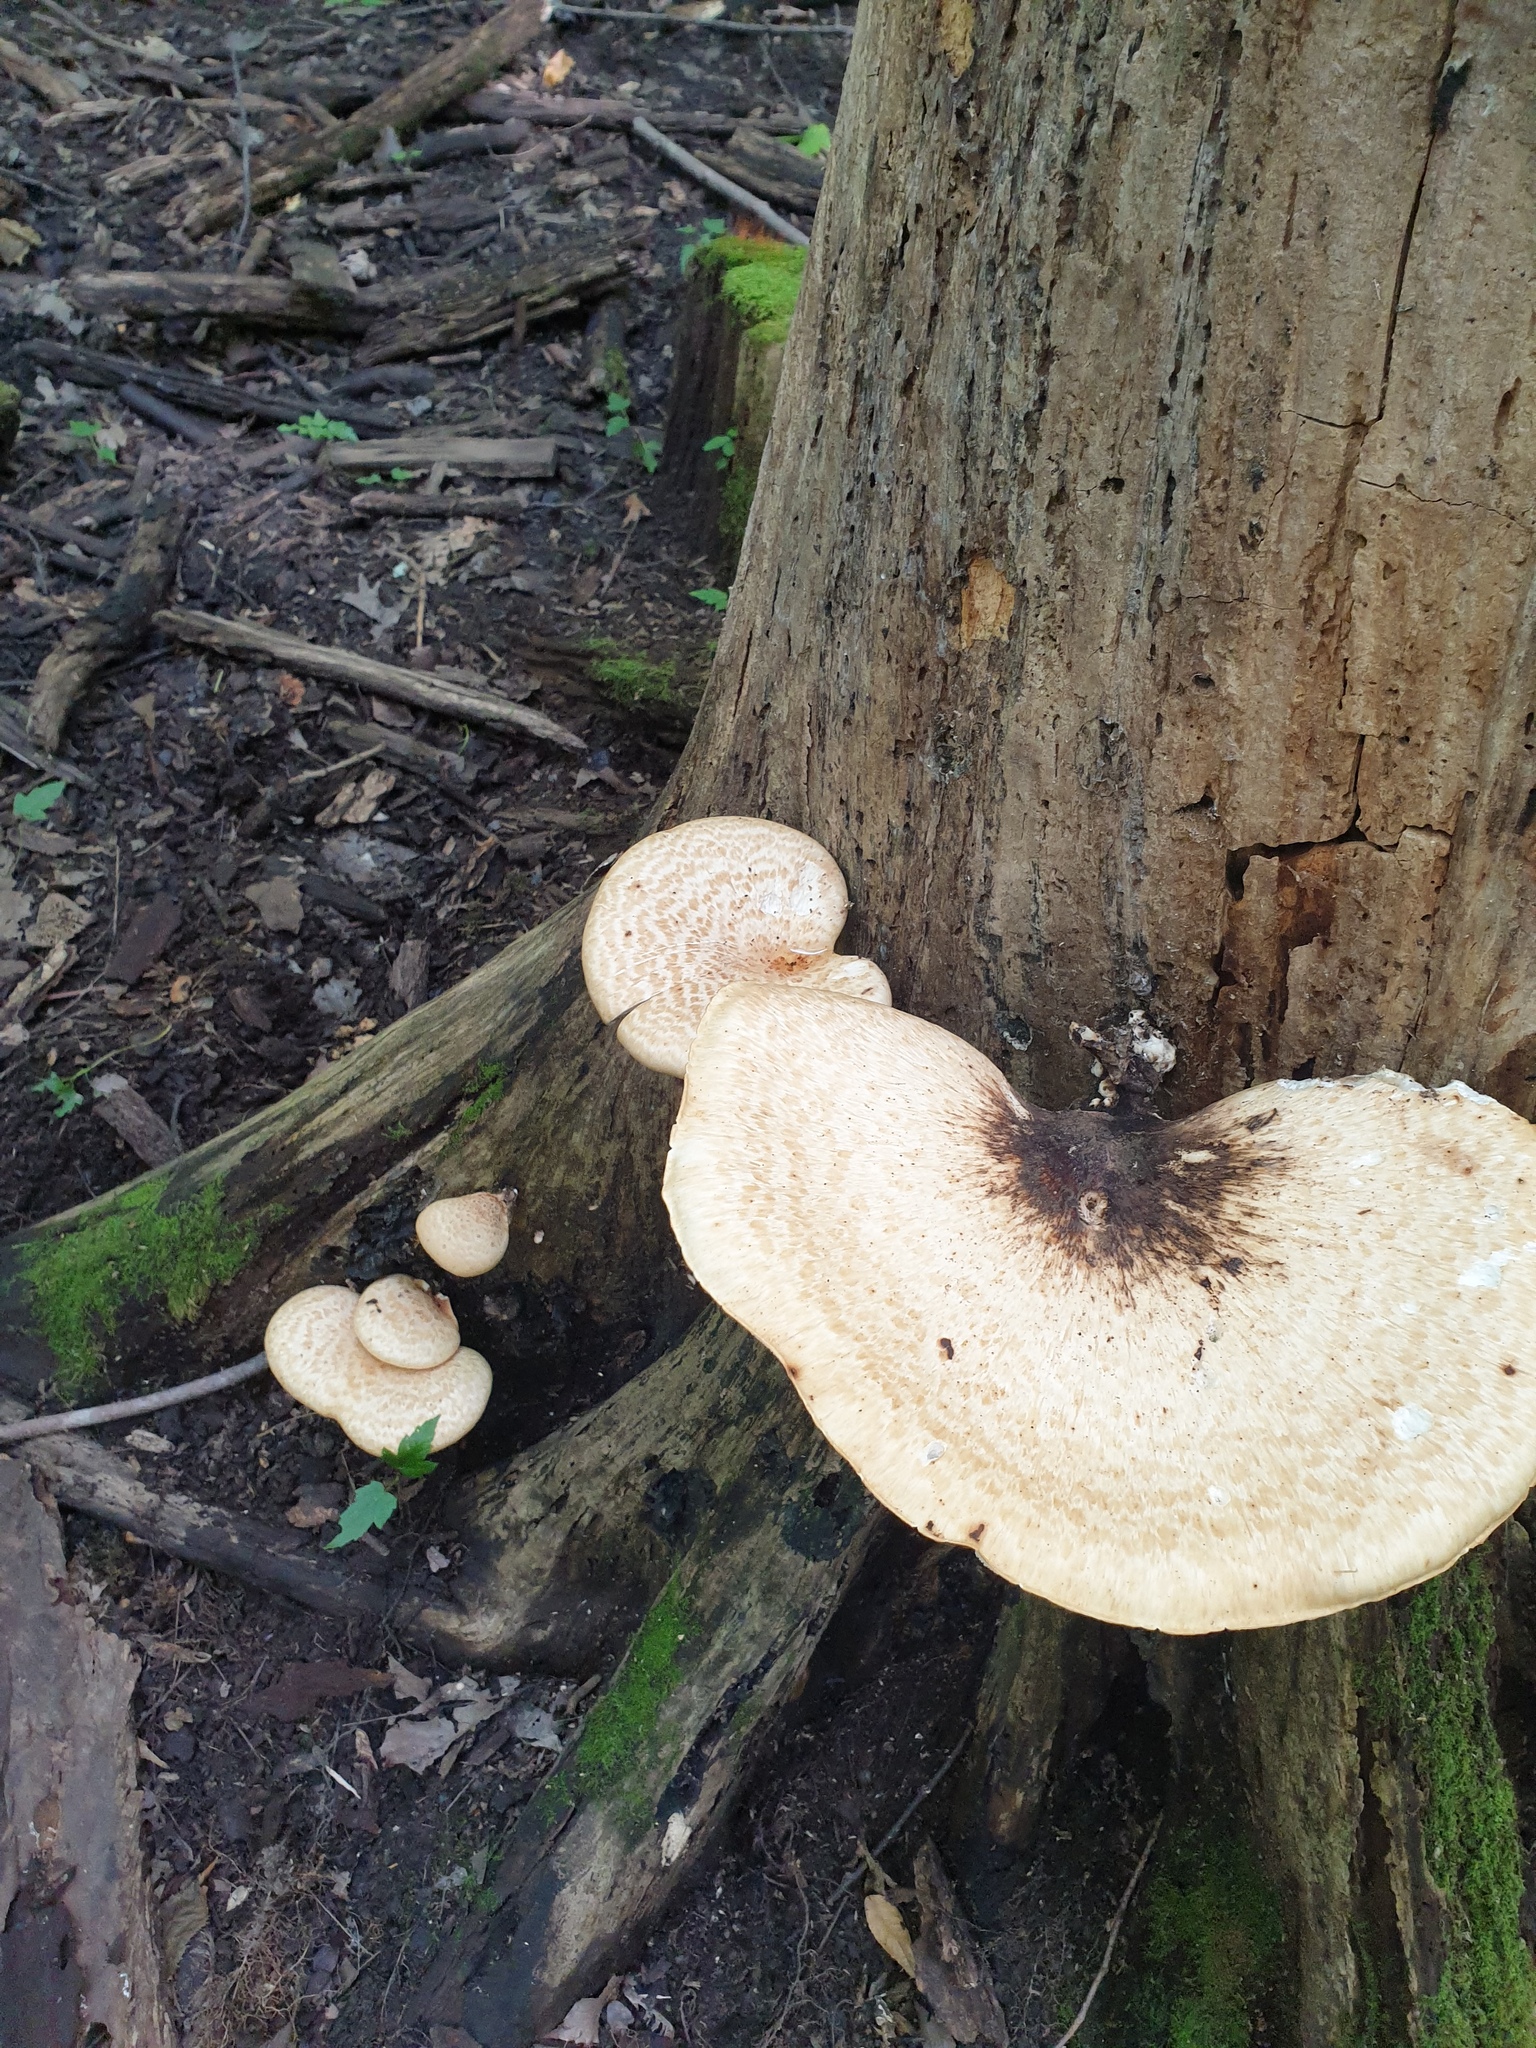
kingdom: Fungi
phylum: Basidiomycota
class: Agaricomycetes
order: Polyporales
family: Polyporaceae
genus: Cerioporus
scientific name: Cerioporus squamosus
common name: Dryad's saddle
